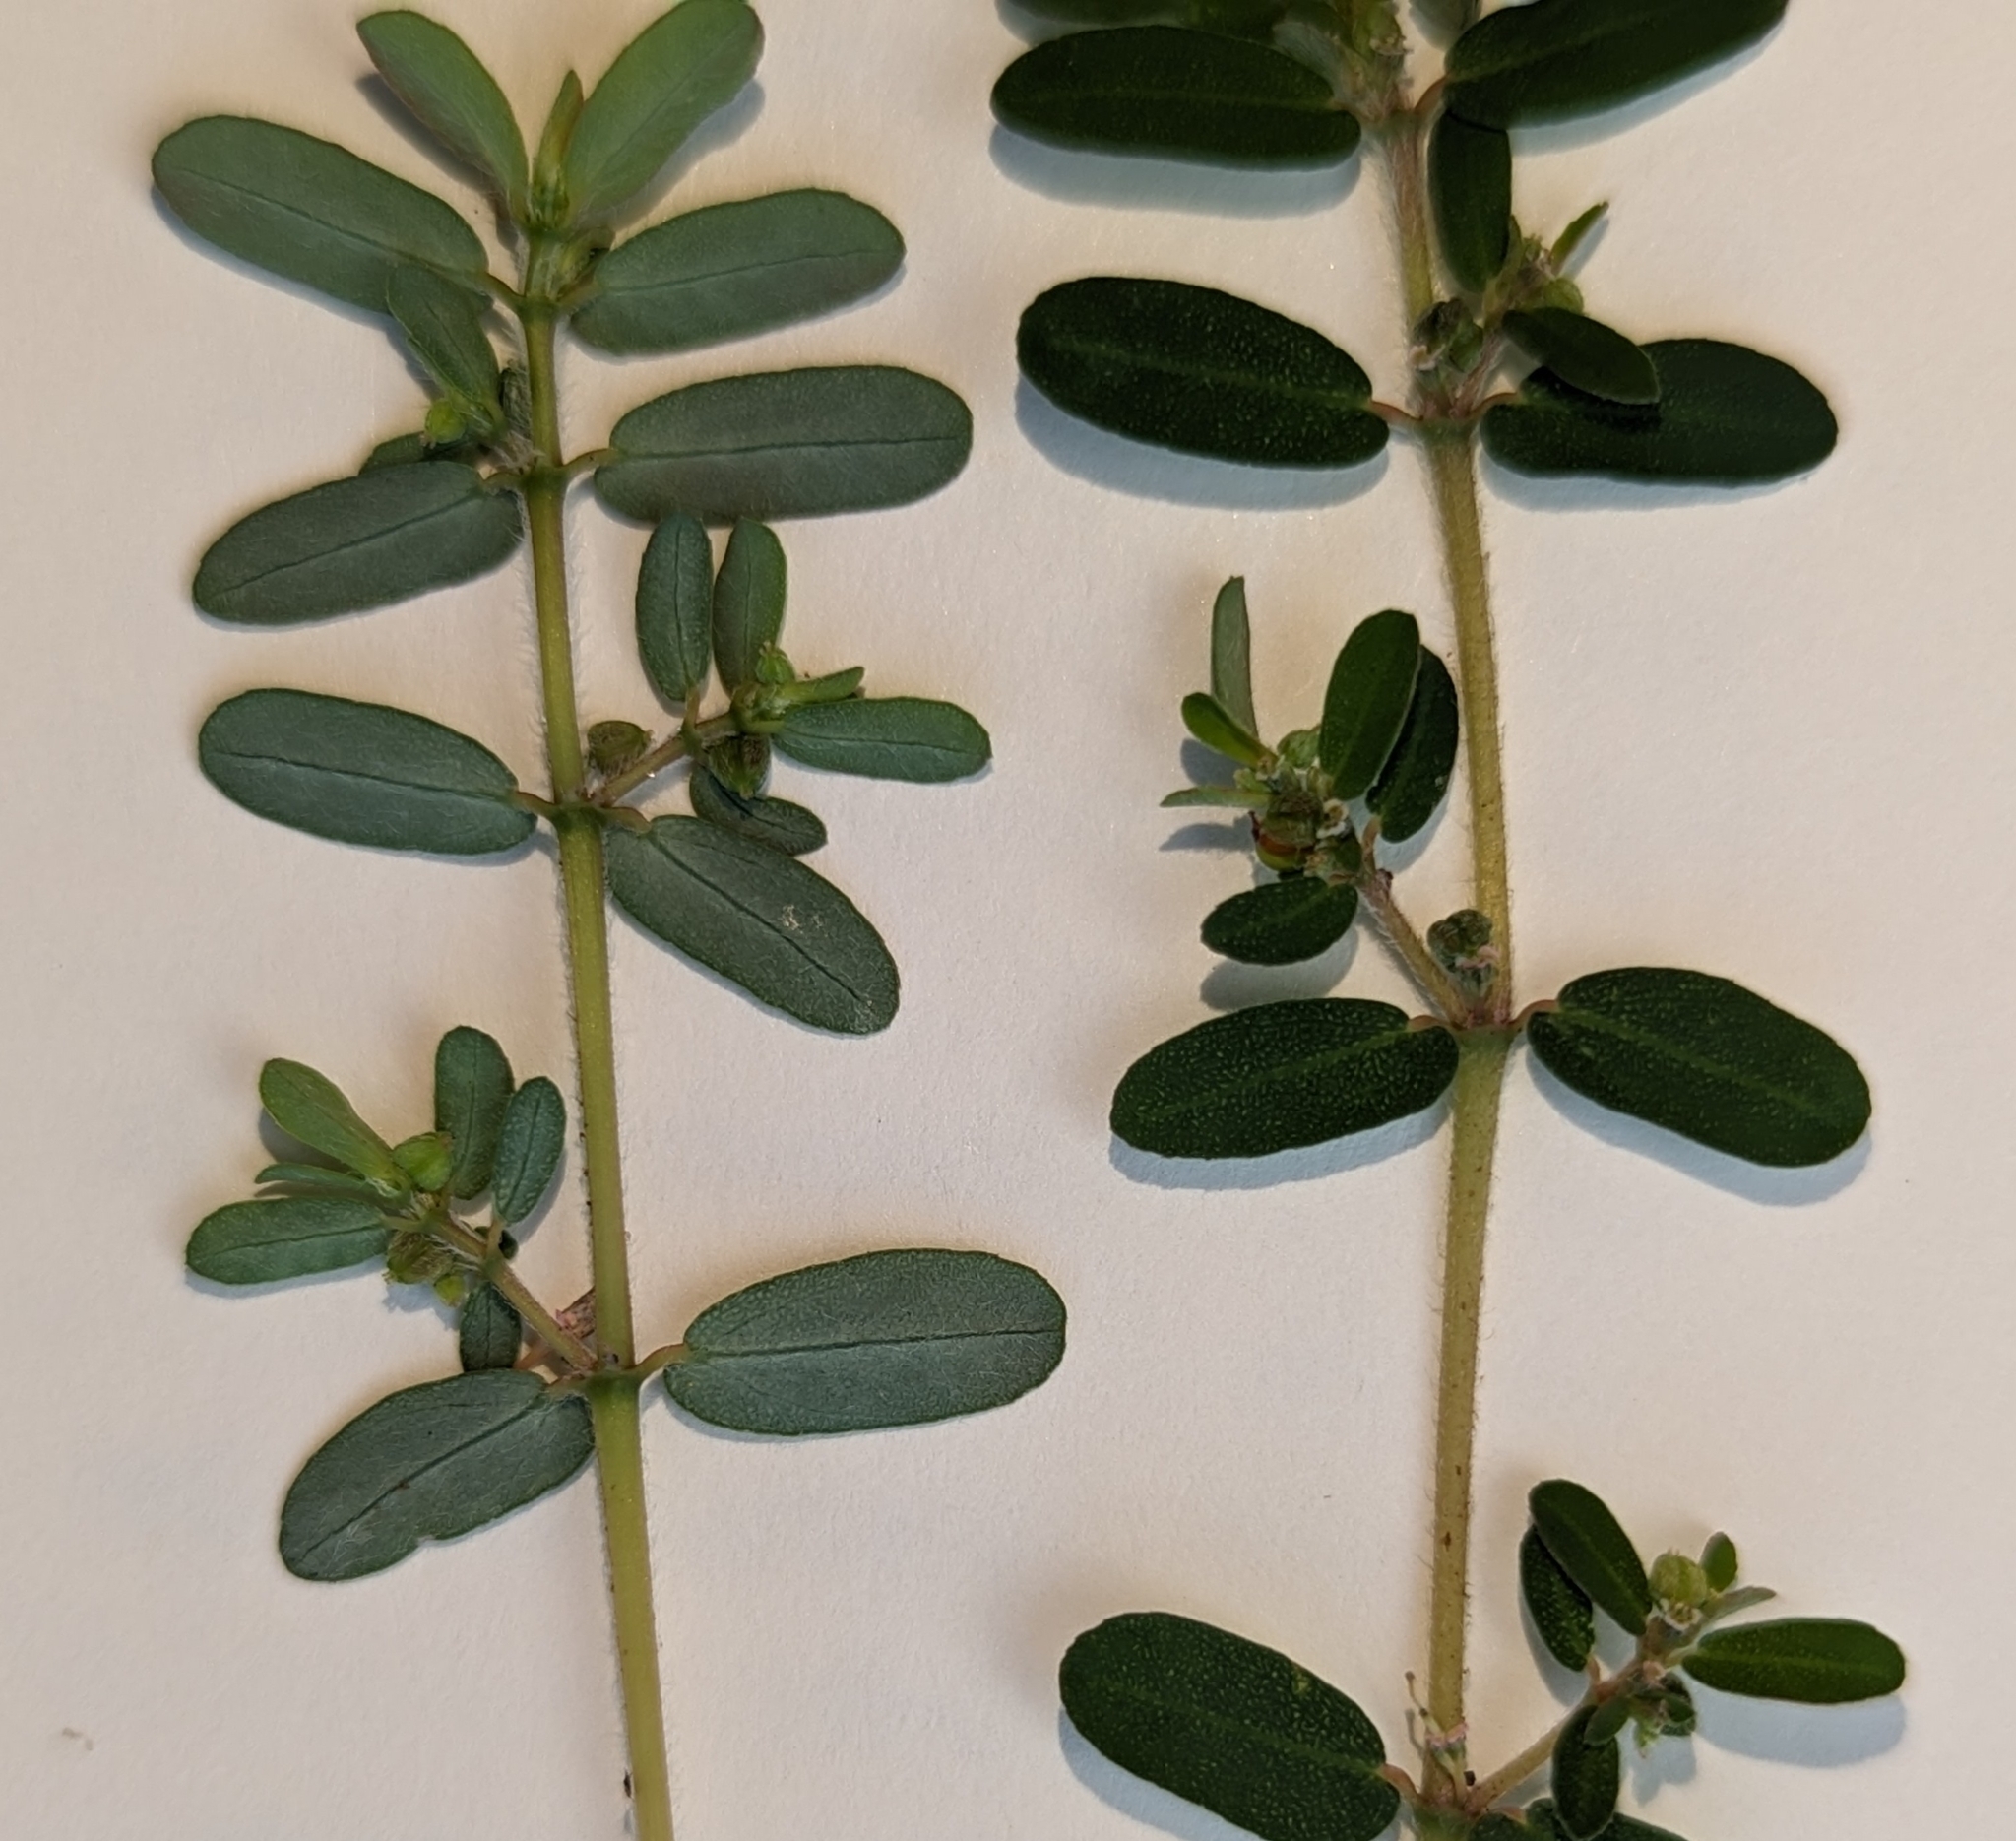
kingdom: Plantae
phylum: Tracheophyta
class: Magnoliopsida
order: Malpighiales
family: Euphorbiaceae
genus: Euphorbia
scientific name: Euphorbia maculata
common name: Spotted spurge
